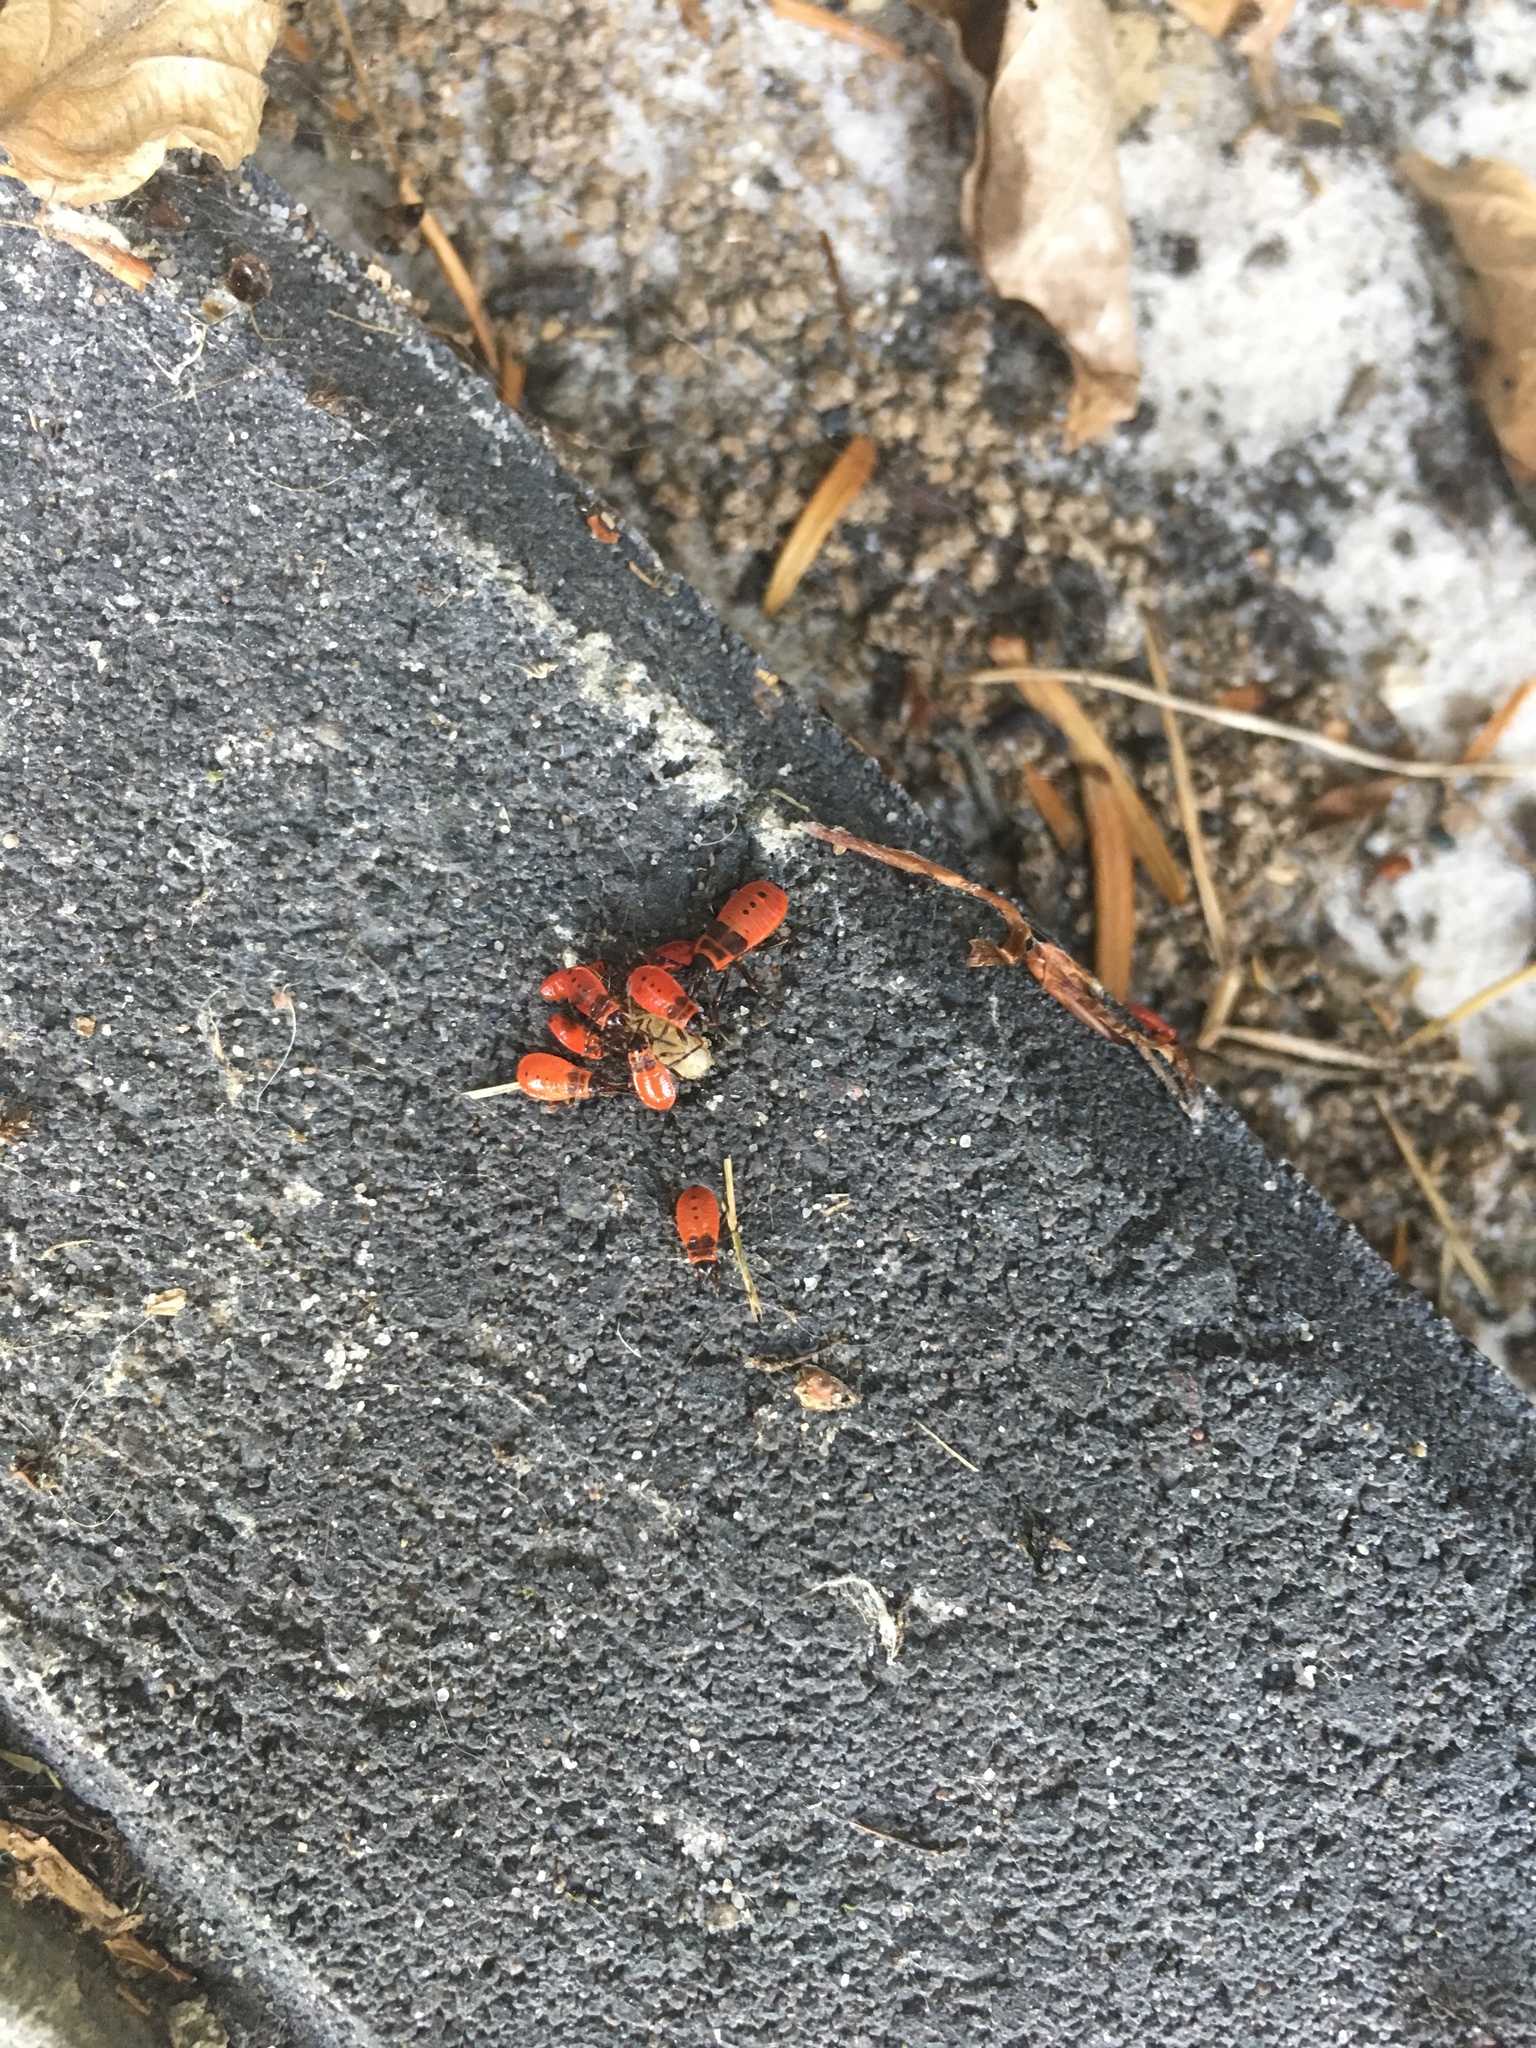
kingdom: Animalia
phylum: Arthropoda
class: Insecta
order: Hemiptera
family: Pyrrhocoridae
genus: Pyrrhocoris
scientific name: Pyrrhocoris apterus
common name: Firebug
